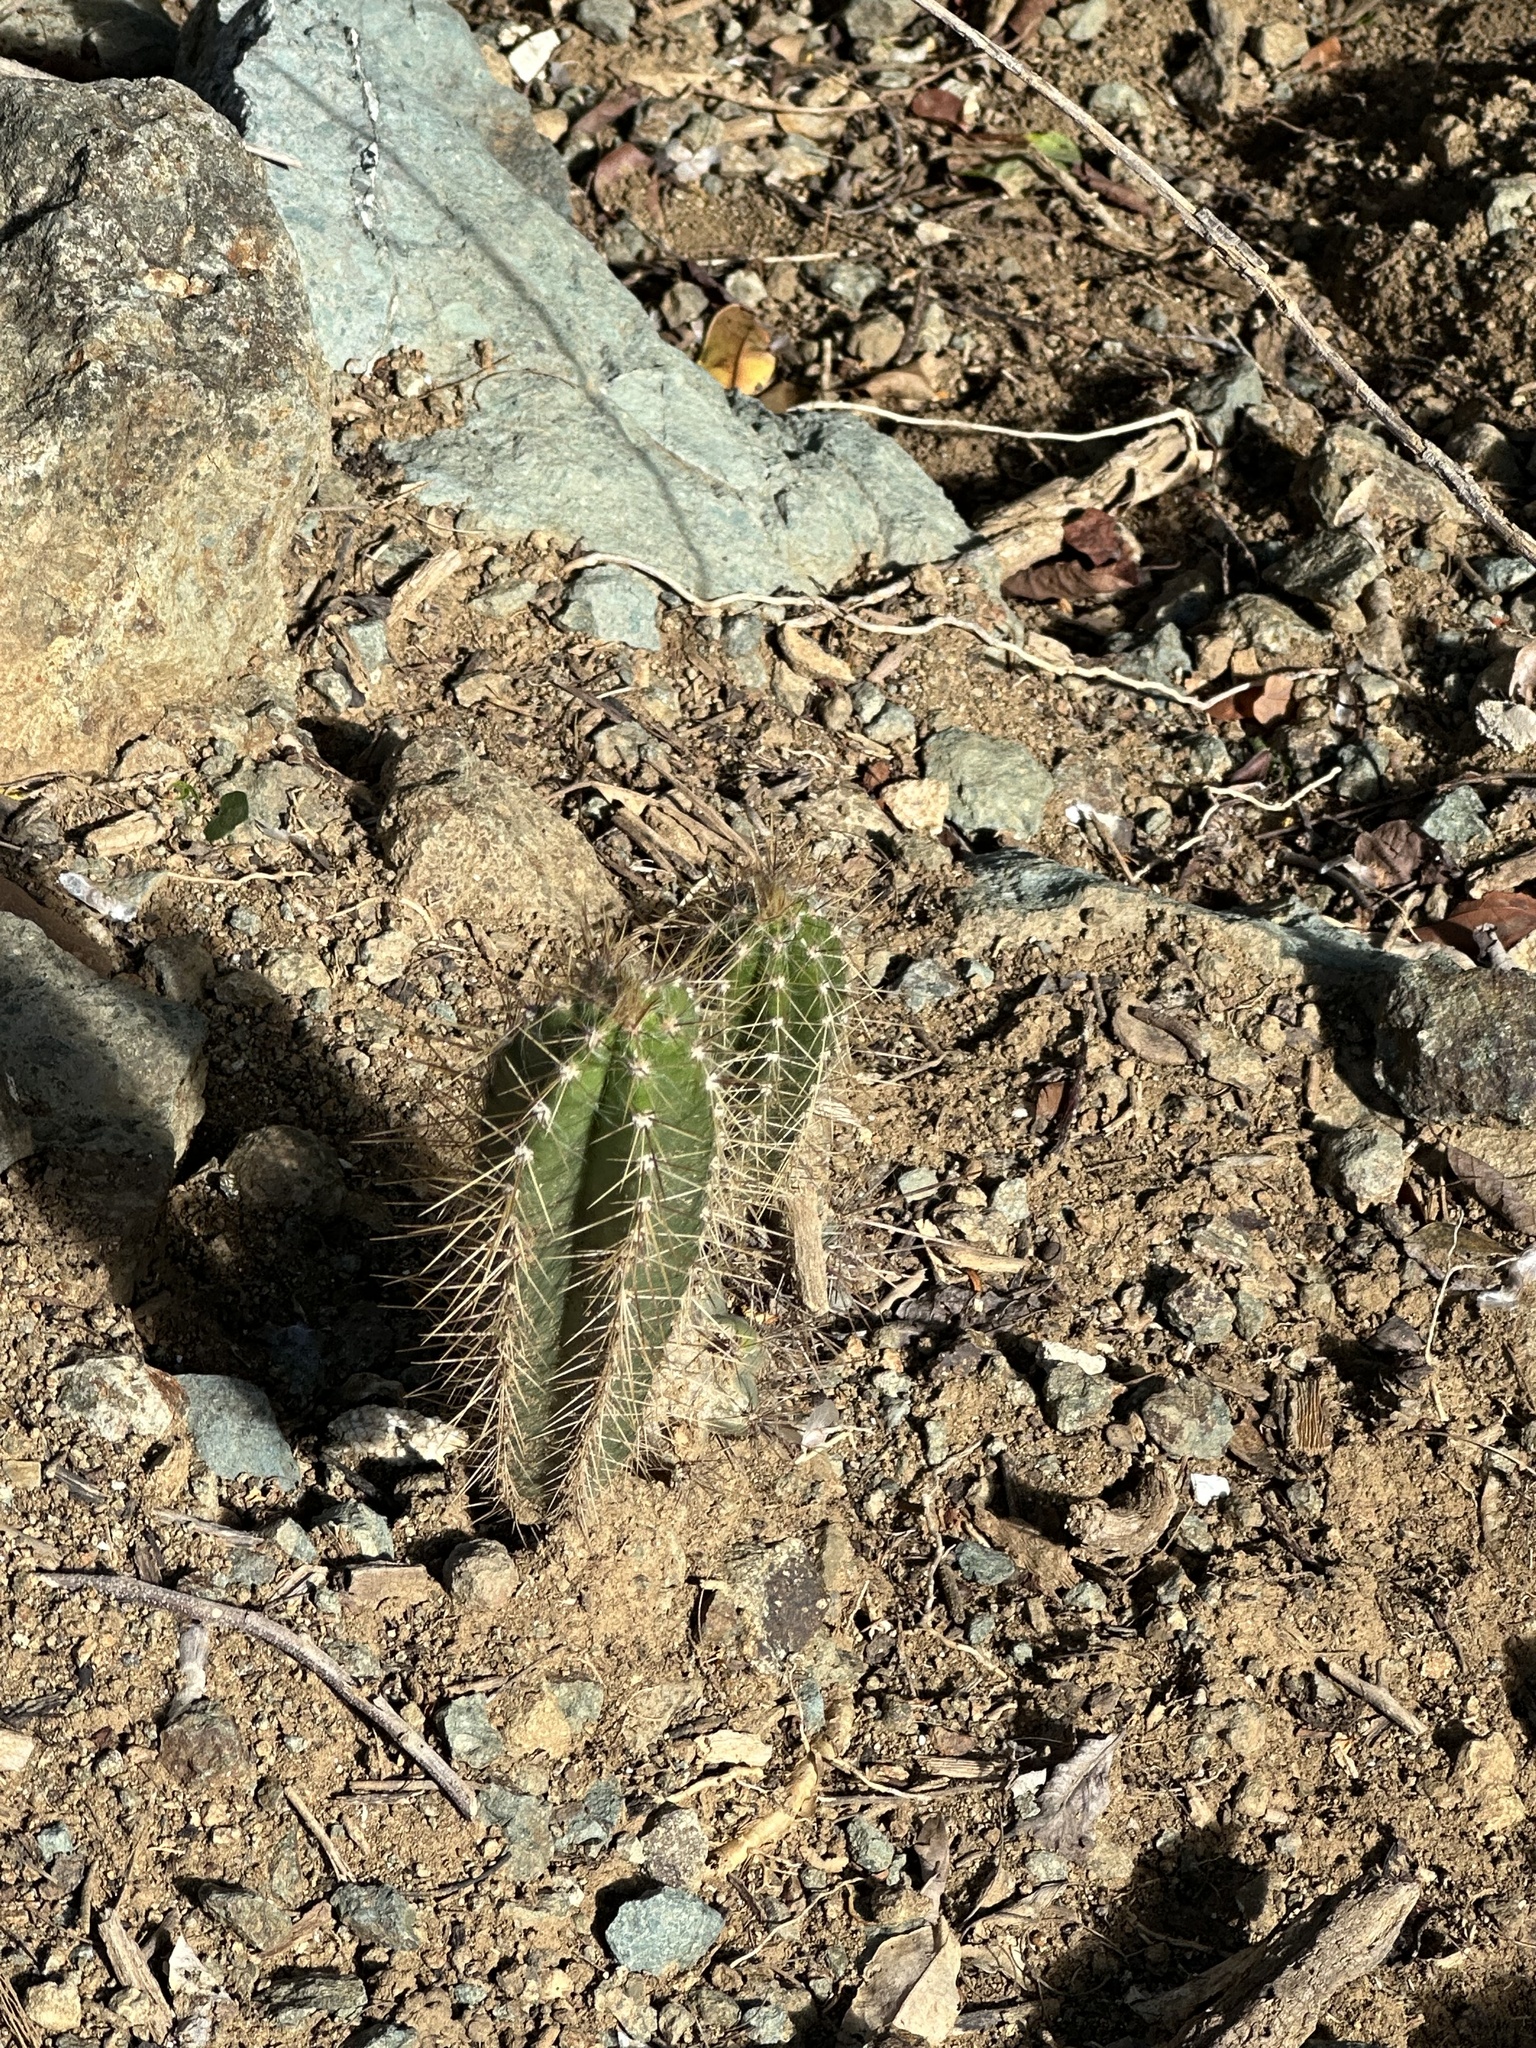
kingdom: Plantae
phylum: Tracheophyta
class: Magnoliopsida
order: Caryophyllales
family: Cactaceae
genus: Pilosocereus
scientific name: Pilosocereus curtisii
